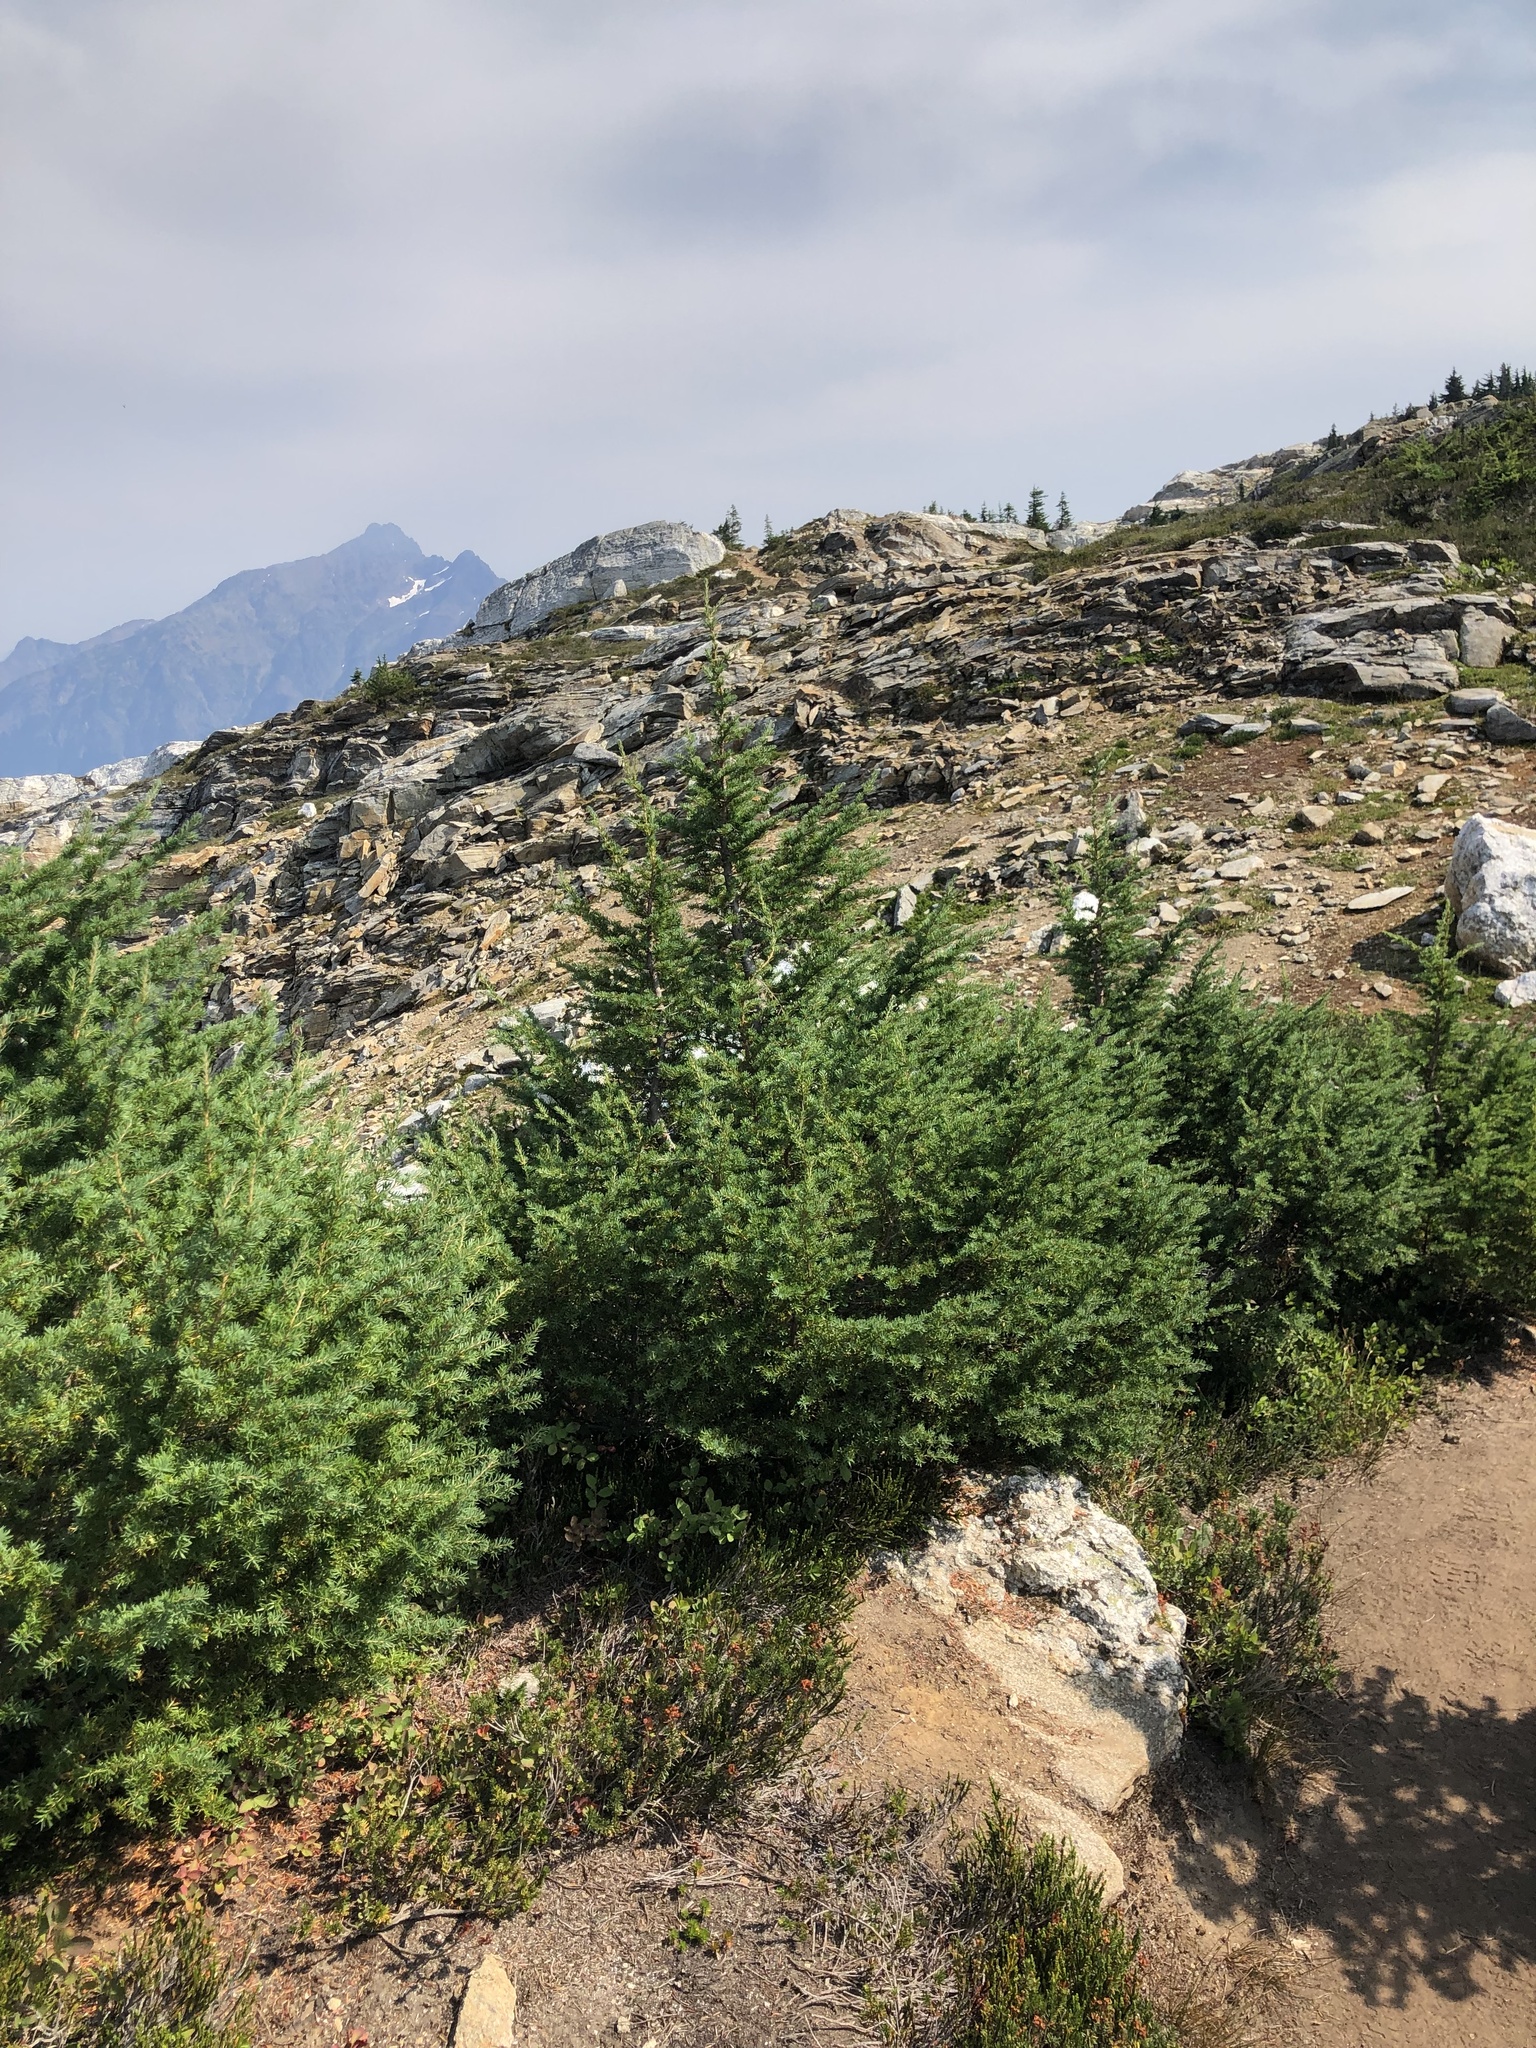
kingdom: Plantae
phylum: Tracheophyta
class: Pinopsida
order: Pinales
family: Pinaceae
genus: Tsuga
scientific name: Tsuga mertensiana
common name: Mountain hemlock
